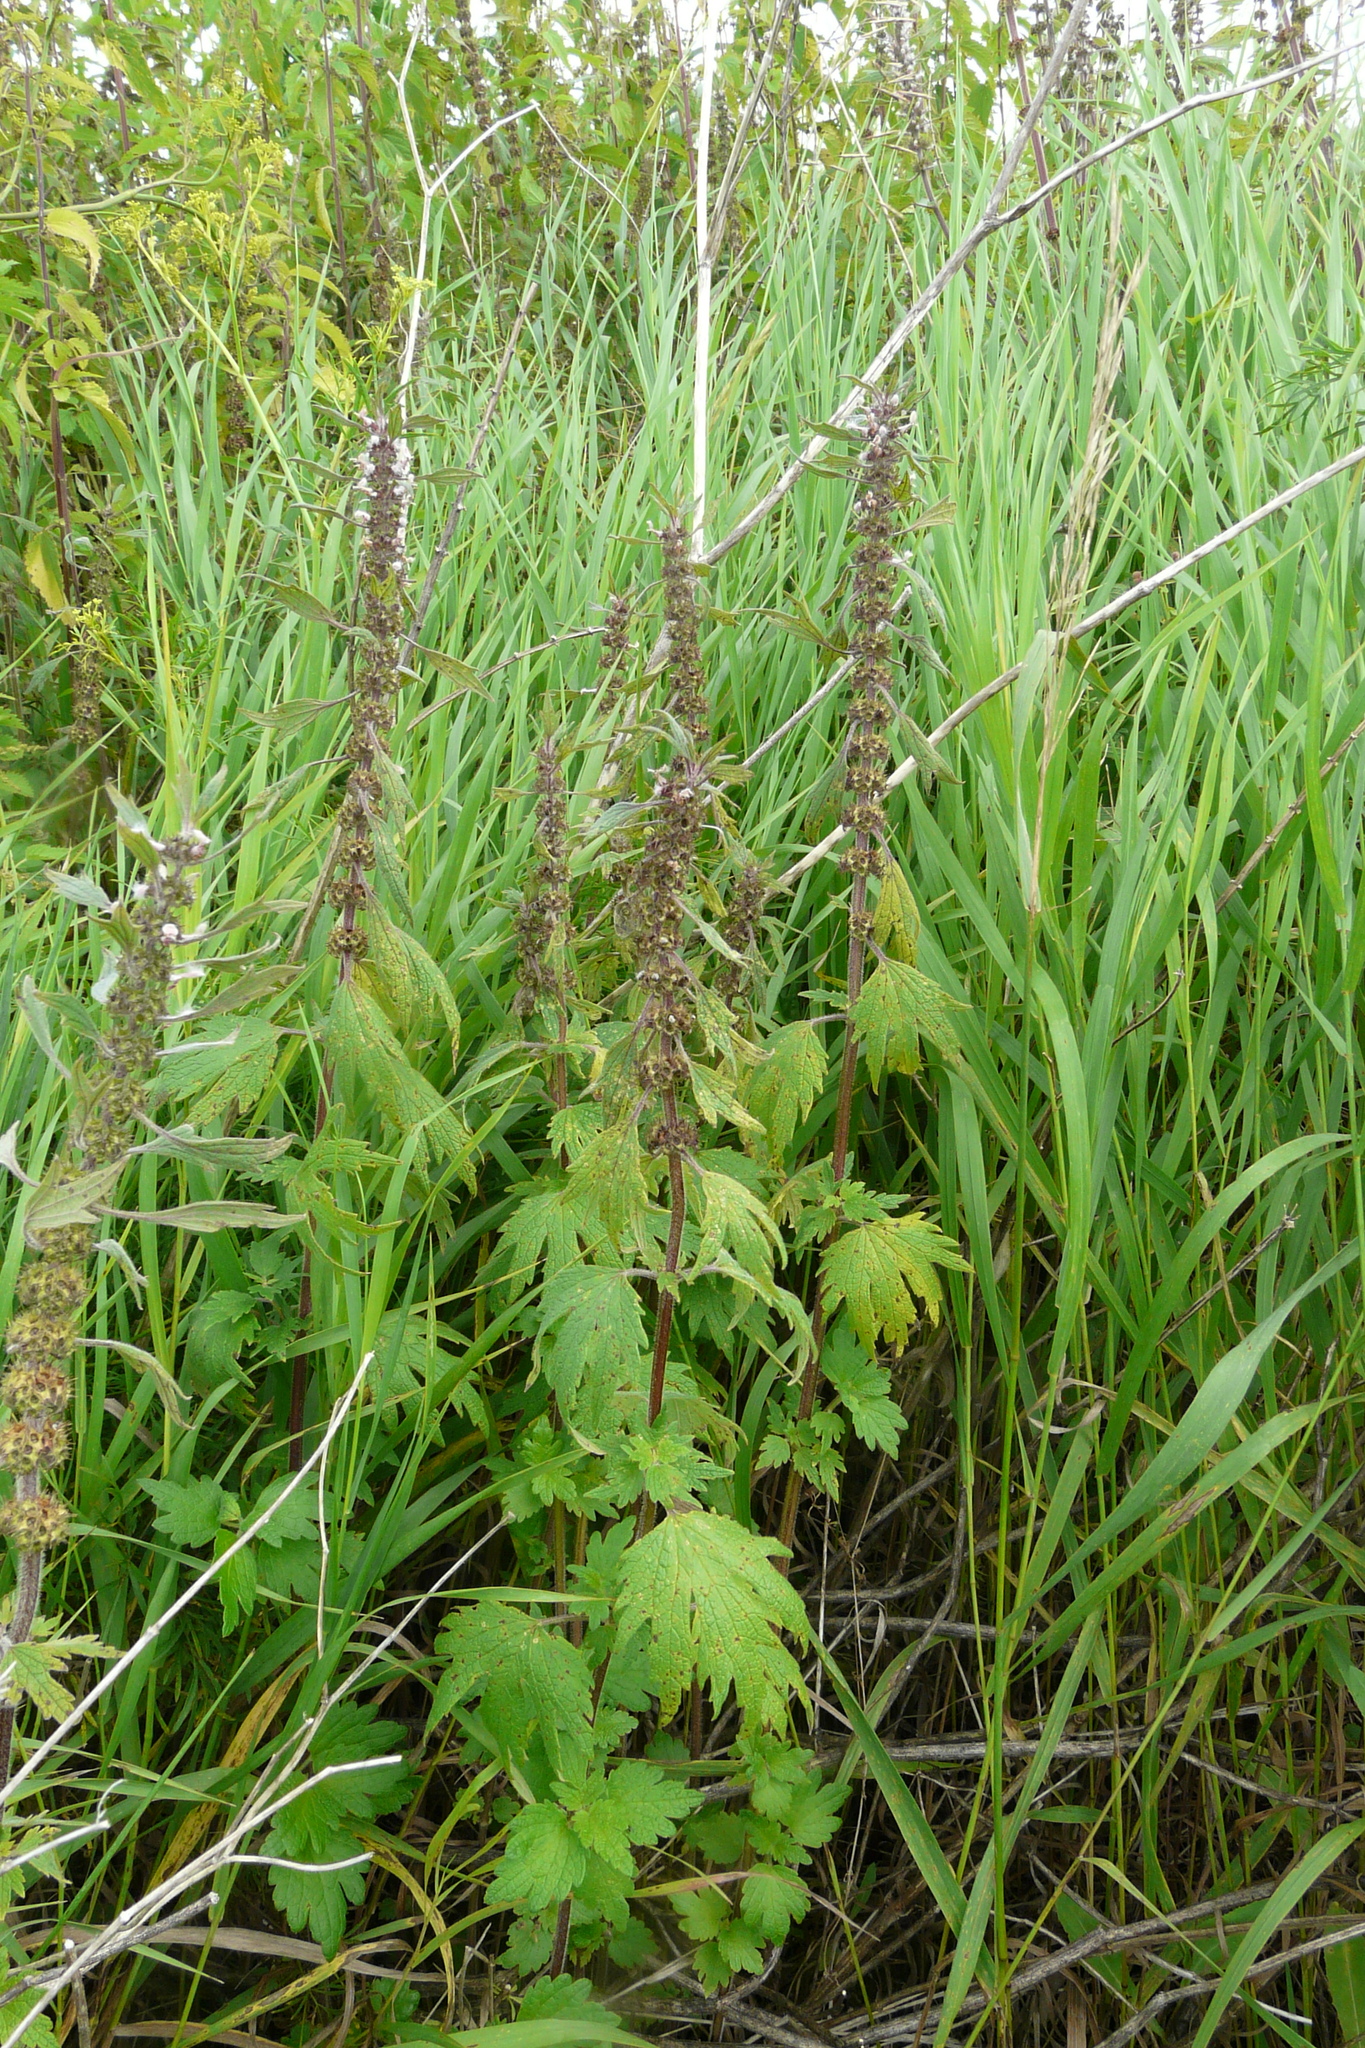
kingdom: Plantae
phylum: Tracheophyta
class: Magnoliopsida
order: Lamiales
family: Lamiaceae
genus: Leonurus
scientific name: Leonurus quinquelobatus
